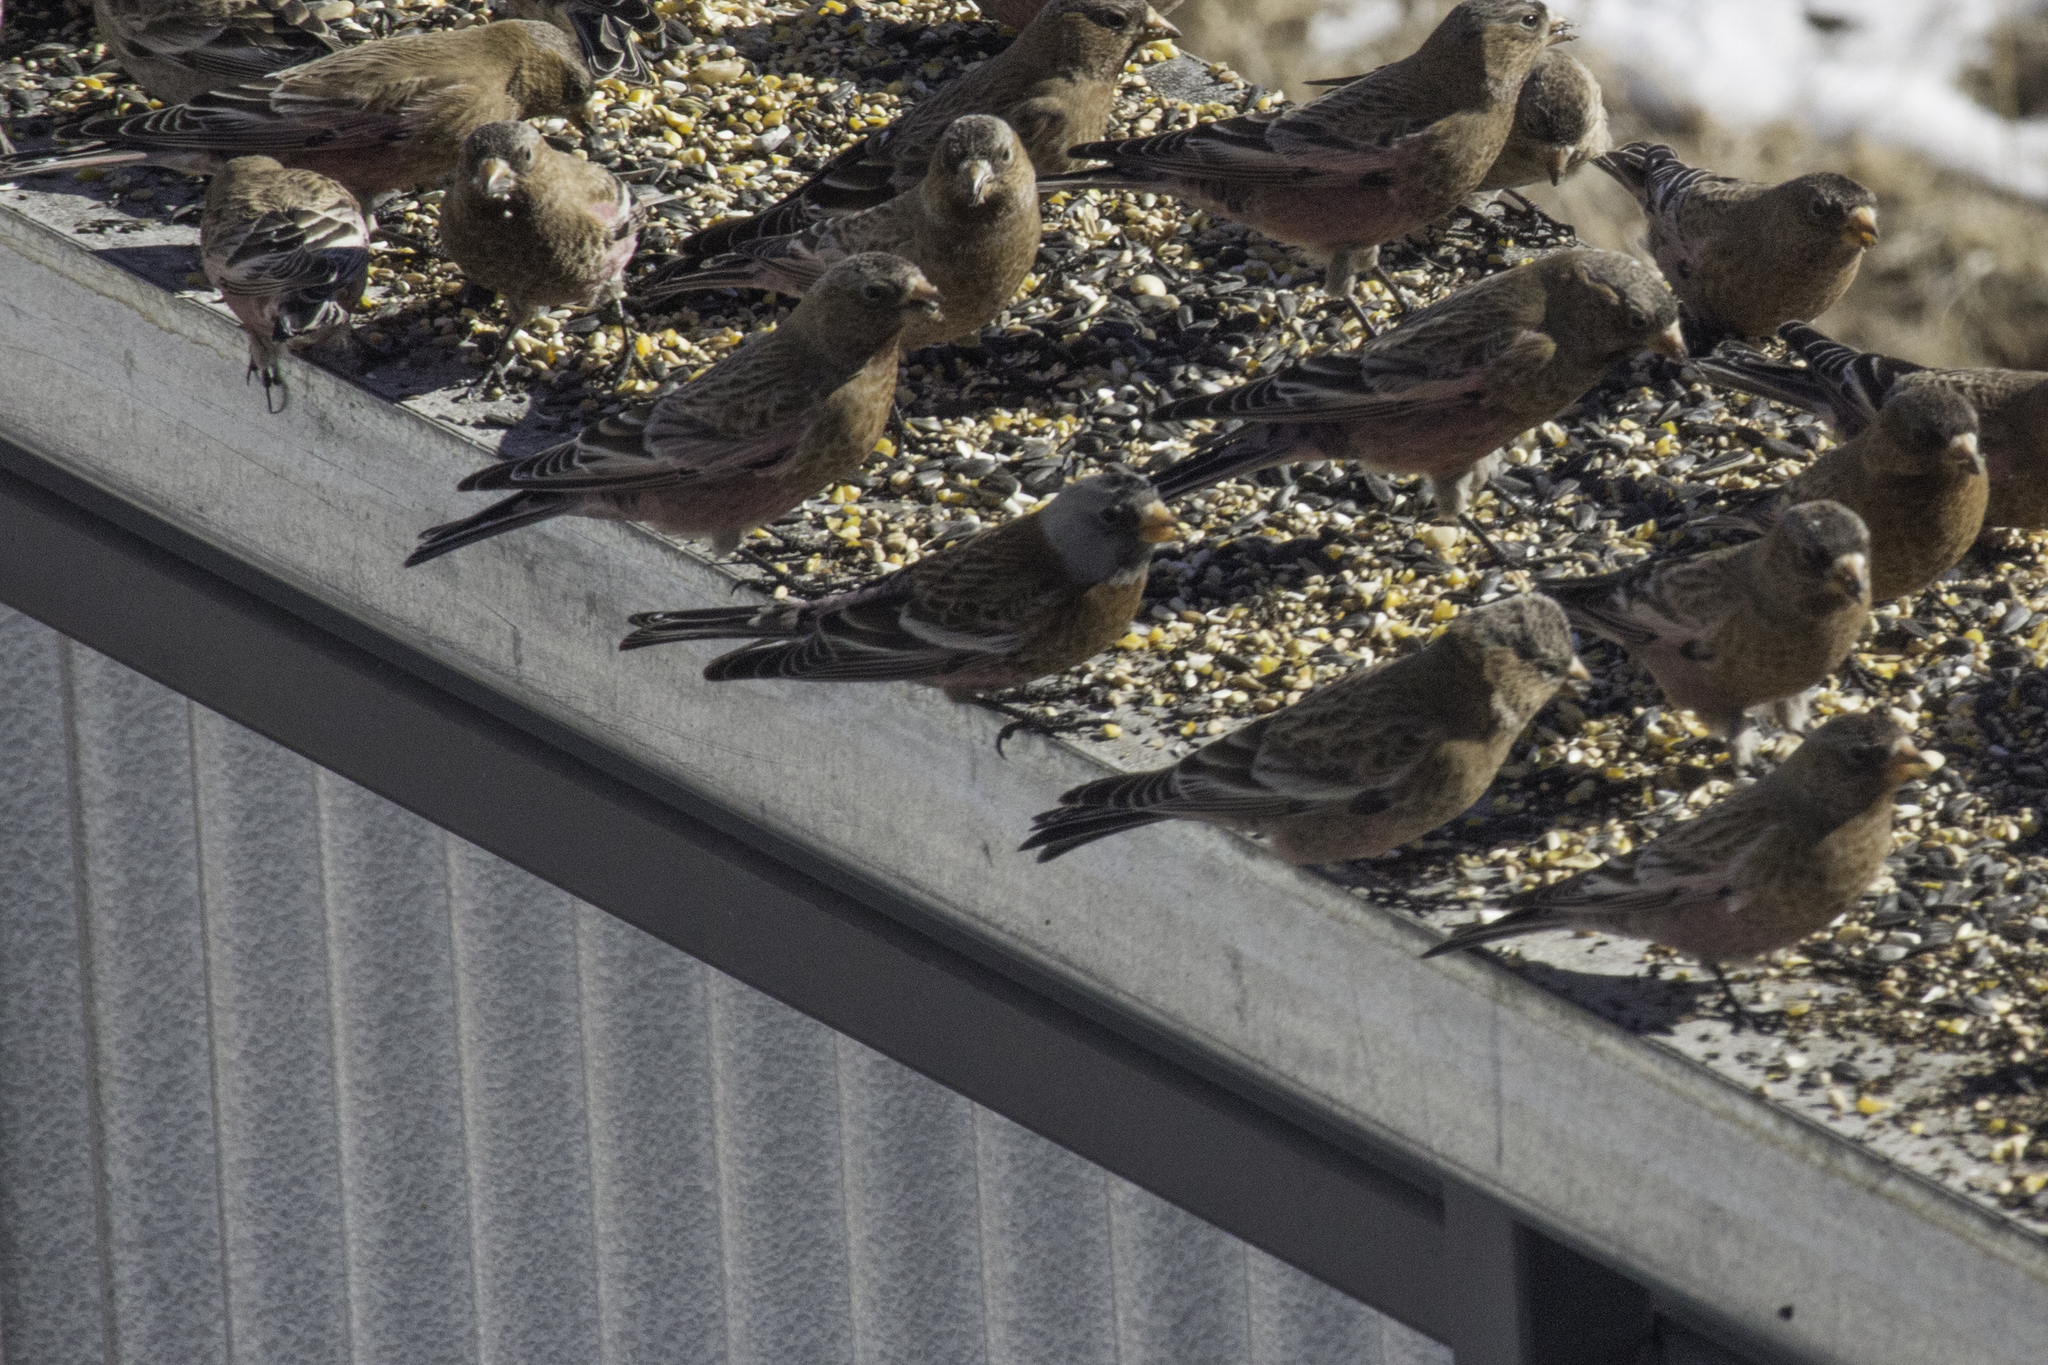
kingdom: Animalia
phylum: Chordata
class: Aves
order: Passeriformes
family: Fringillidae
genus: Leucosticte
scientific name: Leucosticte tephrocotis
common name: Gray-crowned rosy-finch
